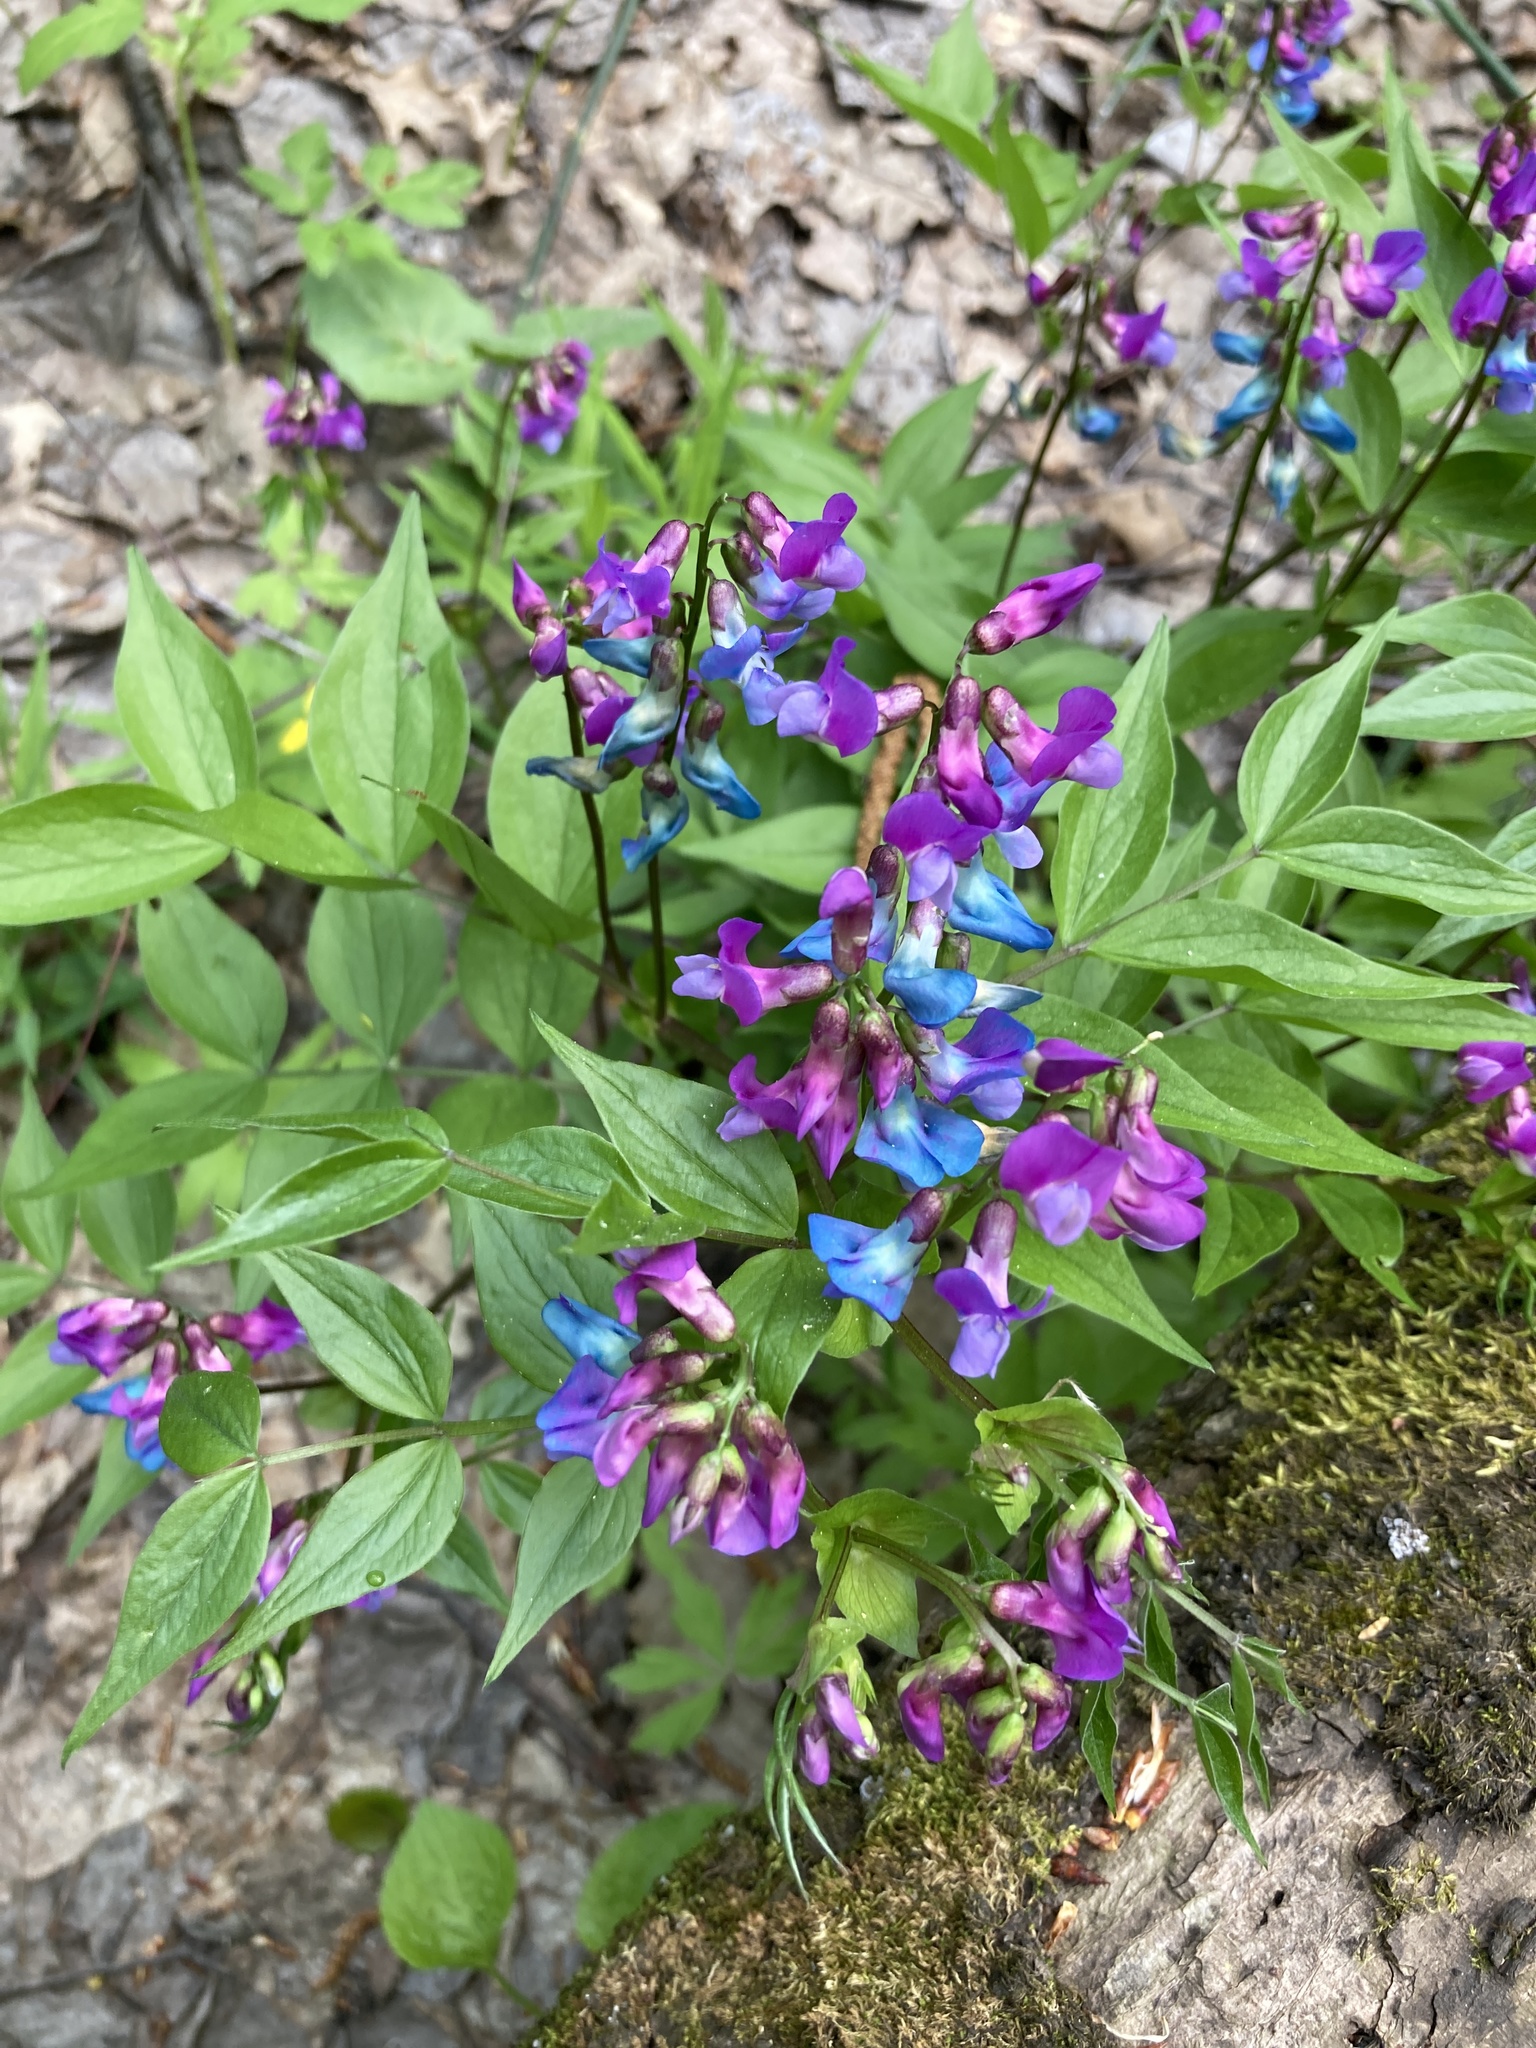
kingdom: Plantae
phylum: Tracheophyta
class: Magnoliopsida
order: Fabales
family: Fabaceae
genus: Lathyrus
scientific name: Lathyrus vernus
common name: Spring pea
